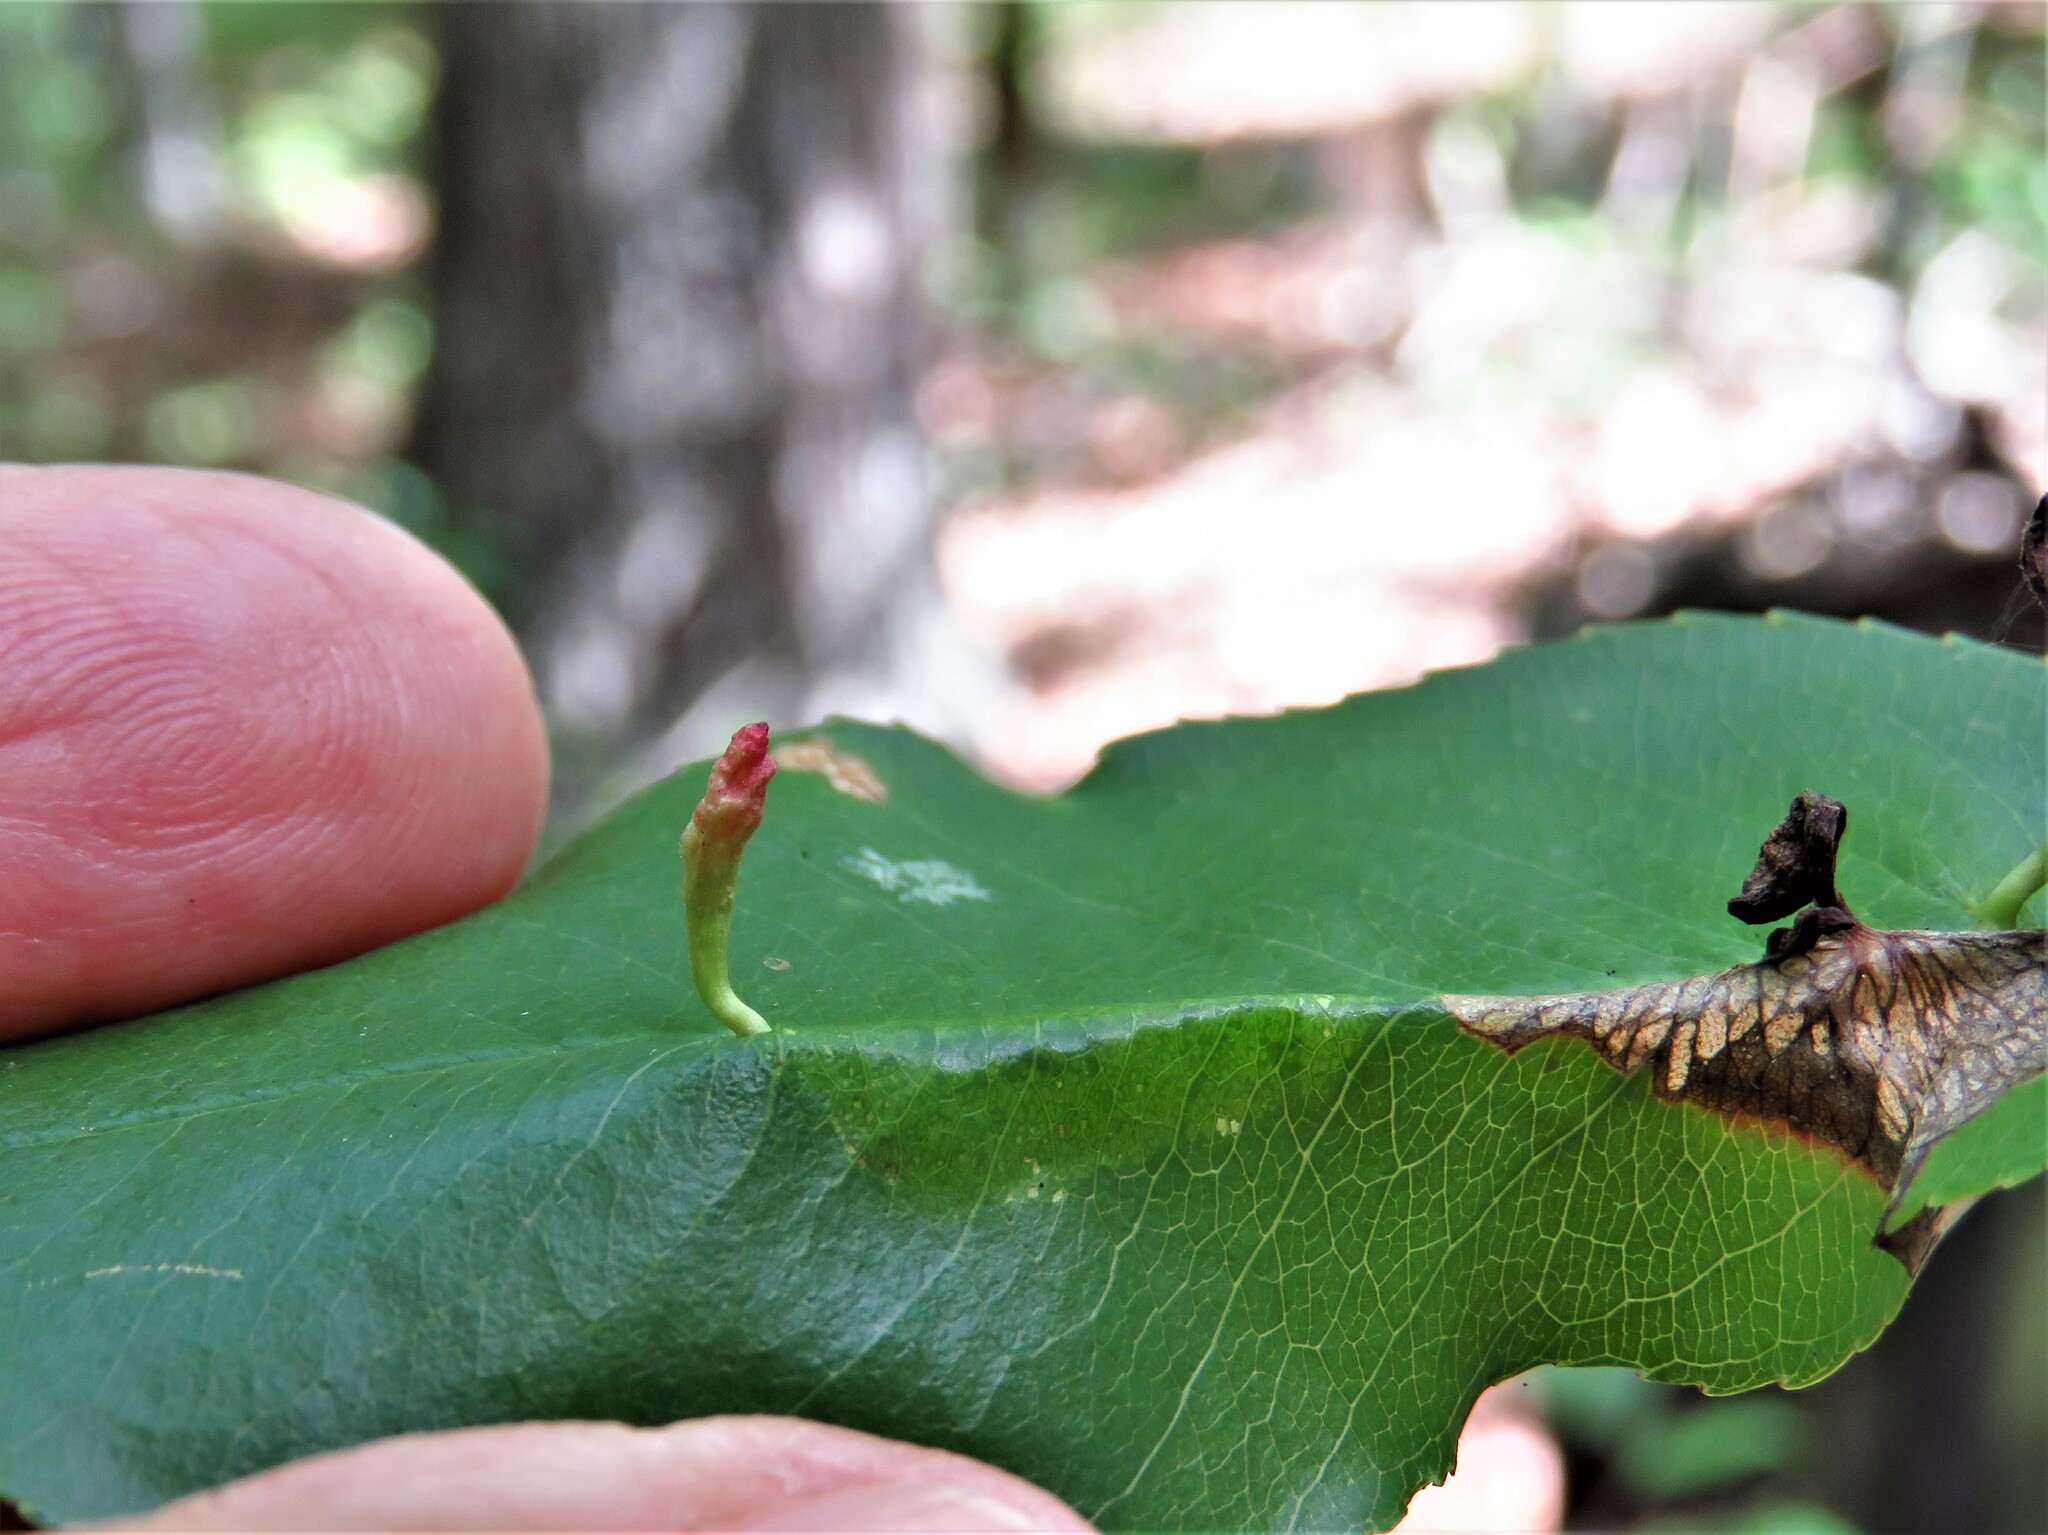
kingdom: Animalia
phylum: Arthropoda
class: Arachnida
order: Trombidiformes
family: Eriophyidae
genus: Eriophyes
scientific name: Eriophyes
